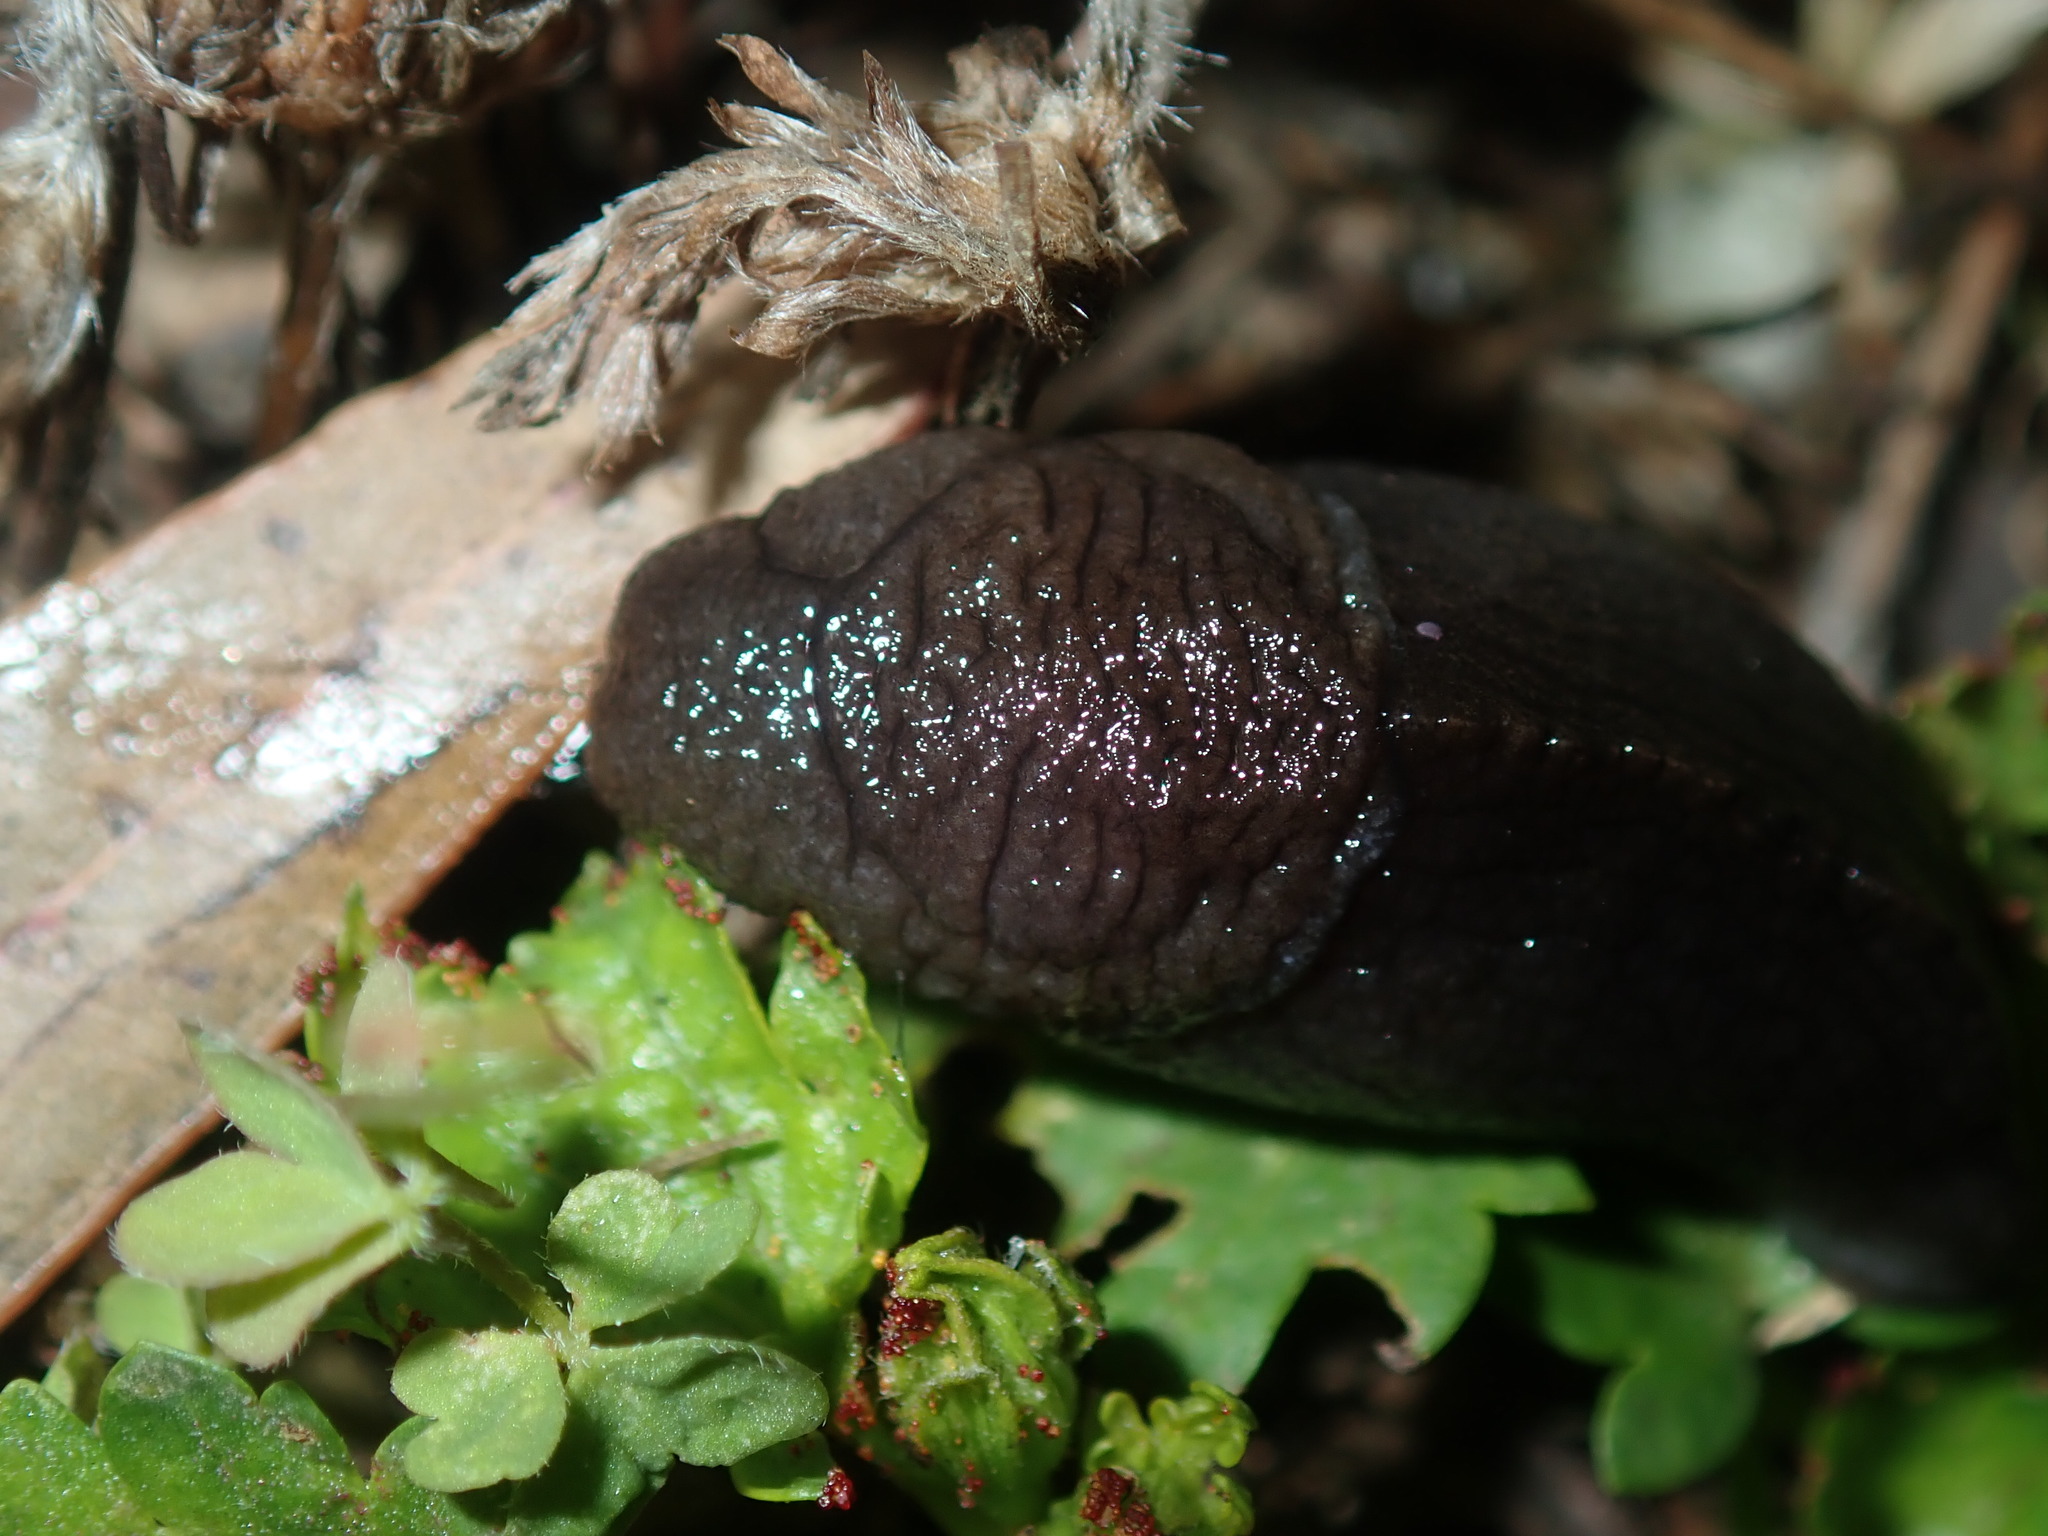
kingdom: Animalia
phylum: Mollusca
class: Gastropoda
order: Stylommatophora
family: Milacidae
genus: Milax
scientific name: Milax gagates
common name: Greenhouse slug
